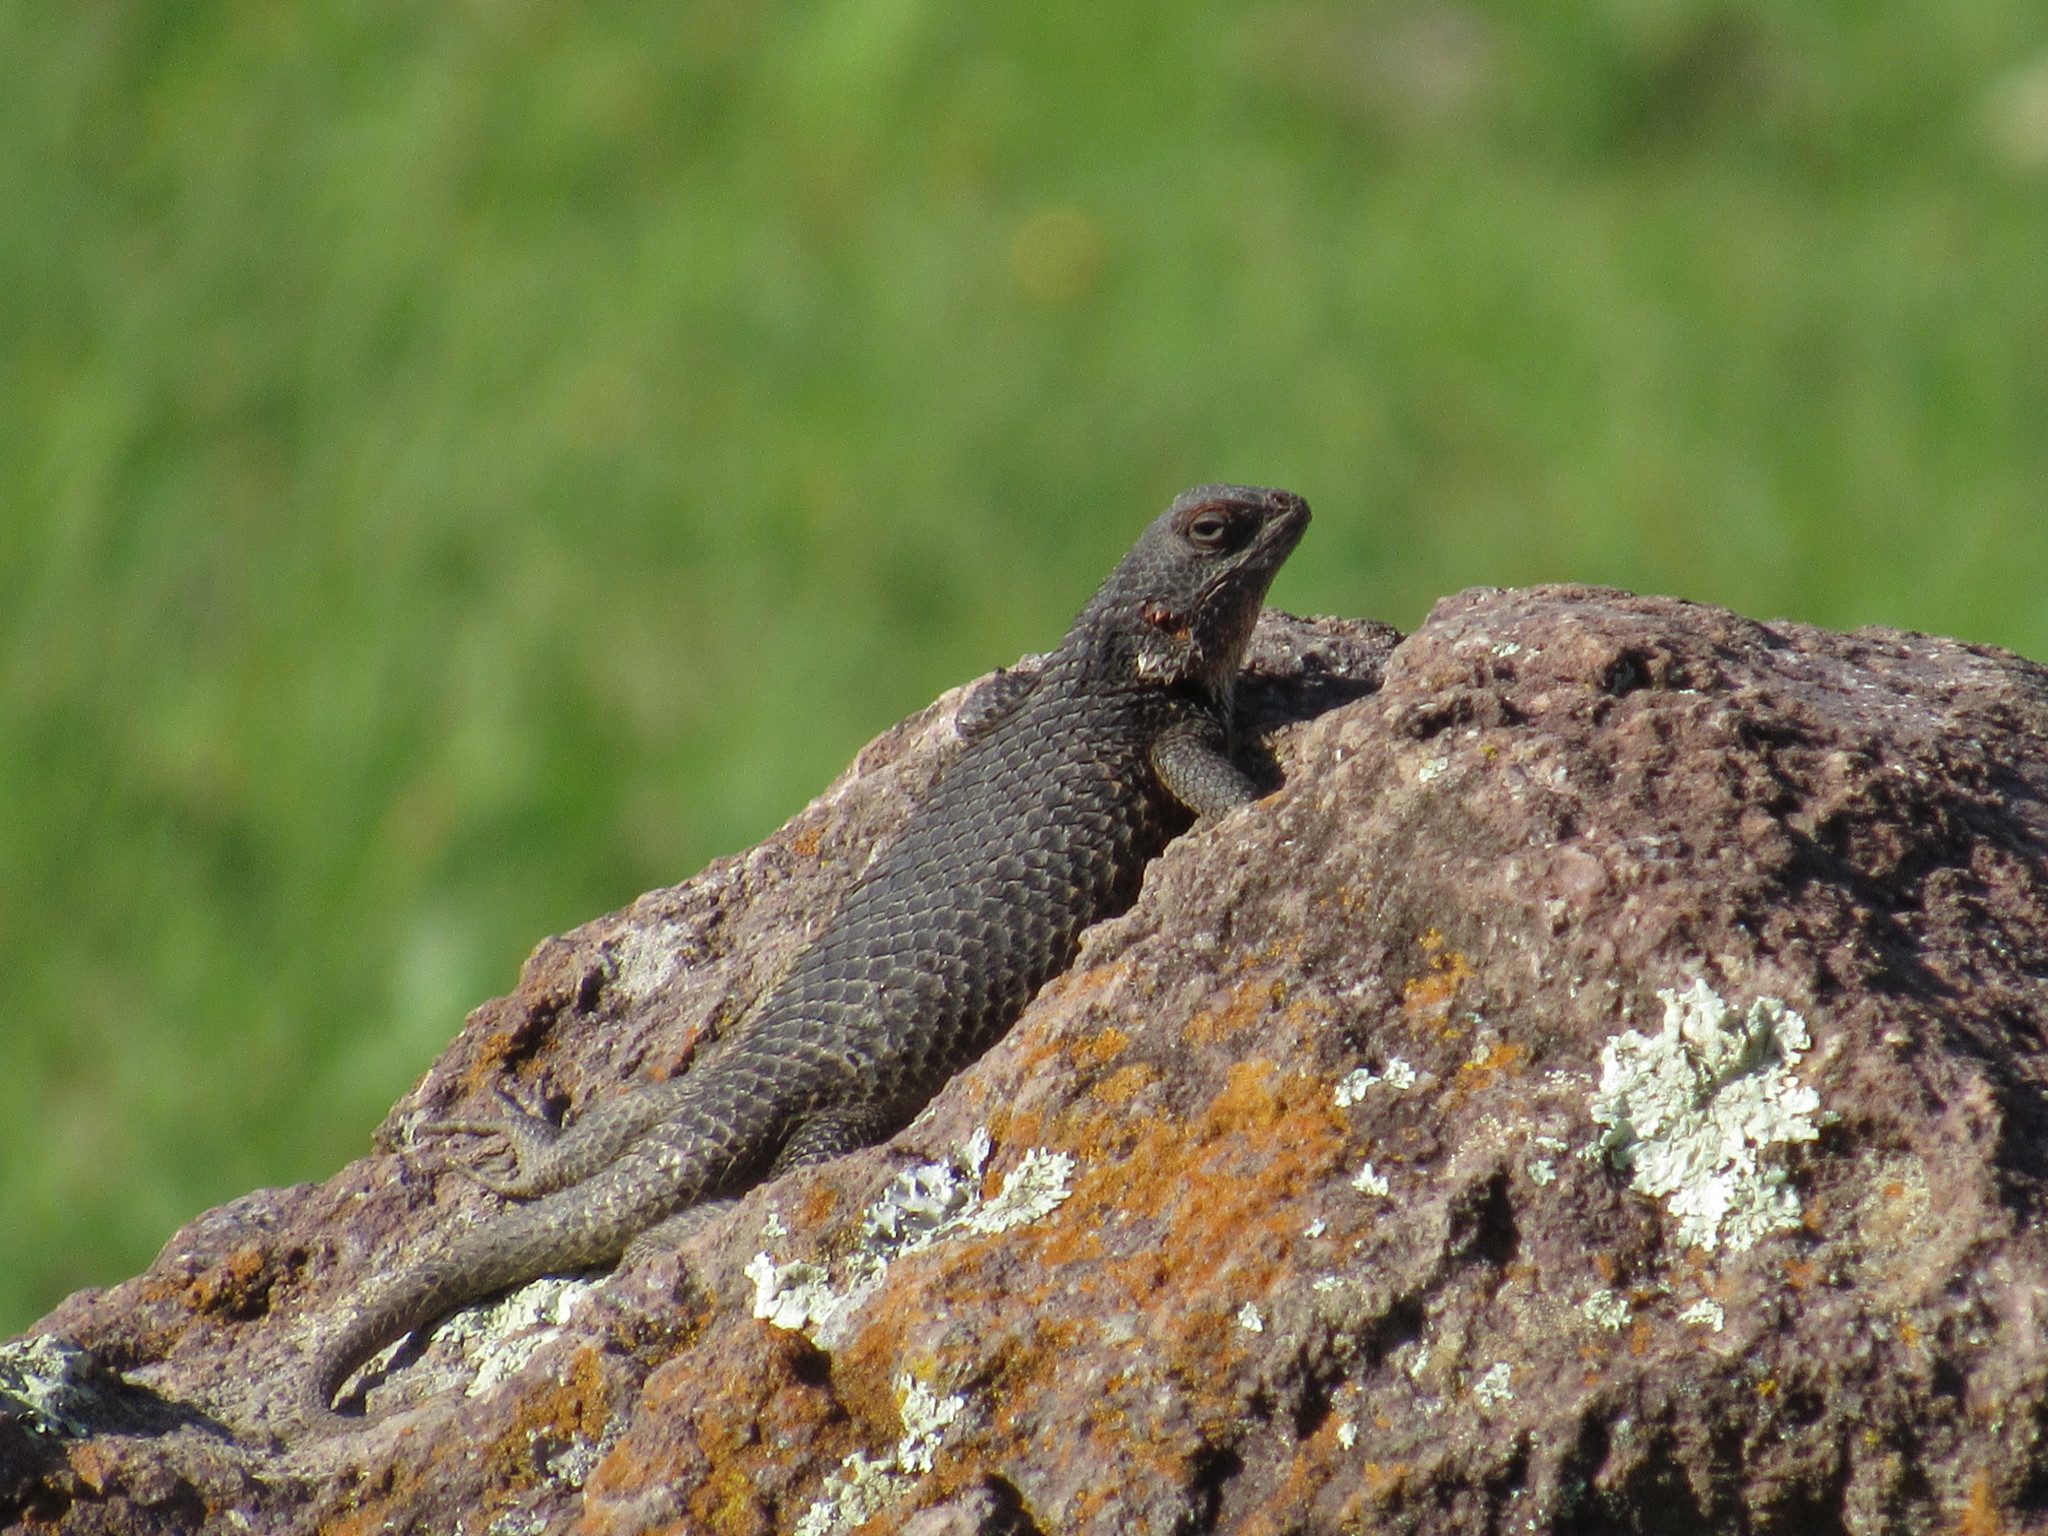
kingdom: Animalia
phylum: Chordata
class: Squamata
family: Phrynosomatidae
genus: Sceloporus
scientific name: Sceloporus spinosus
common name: Blue-spotted spiny lizard [caeruleopunctatus]
